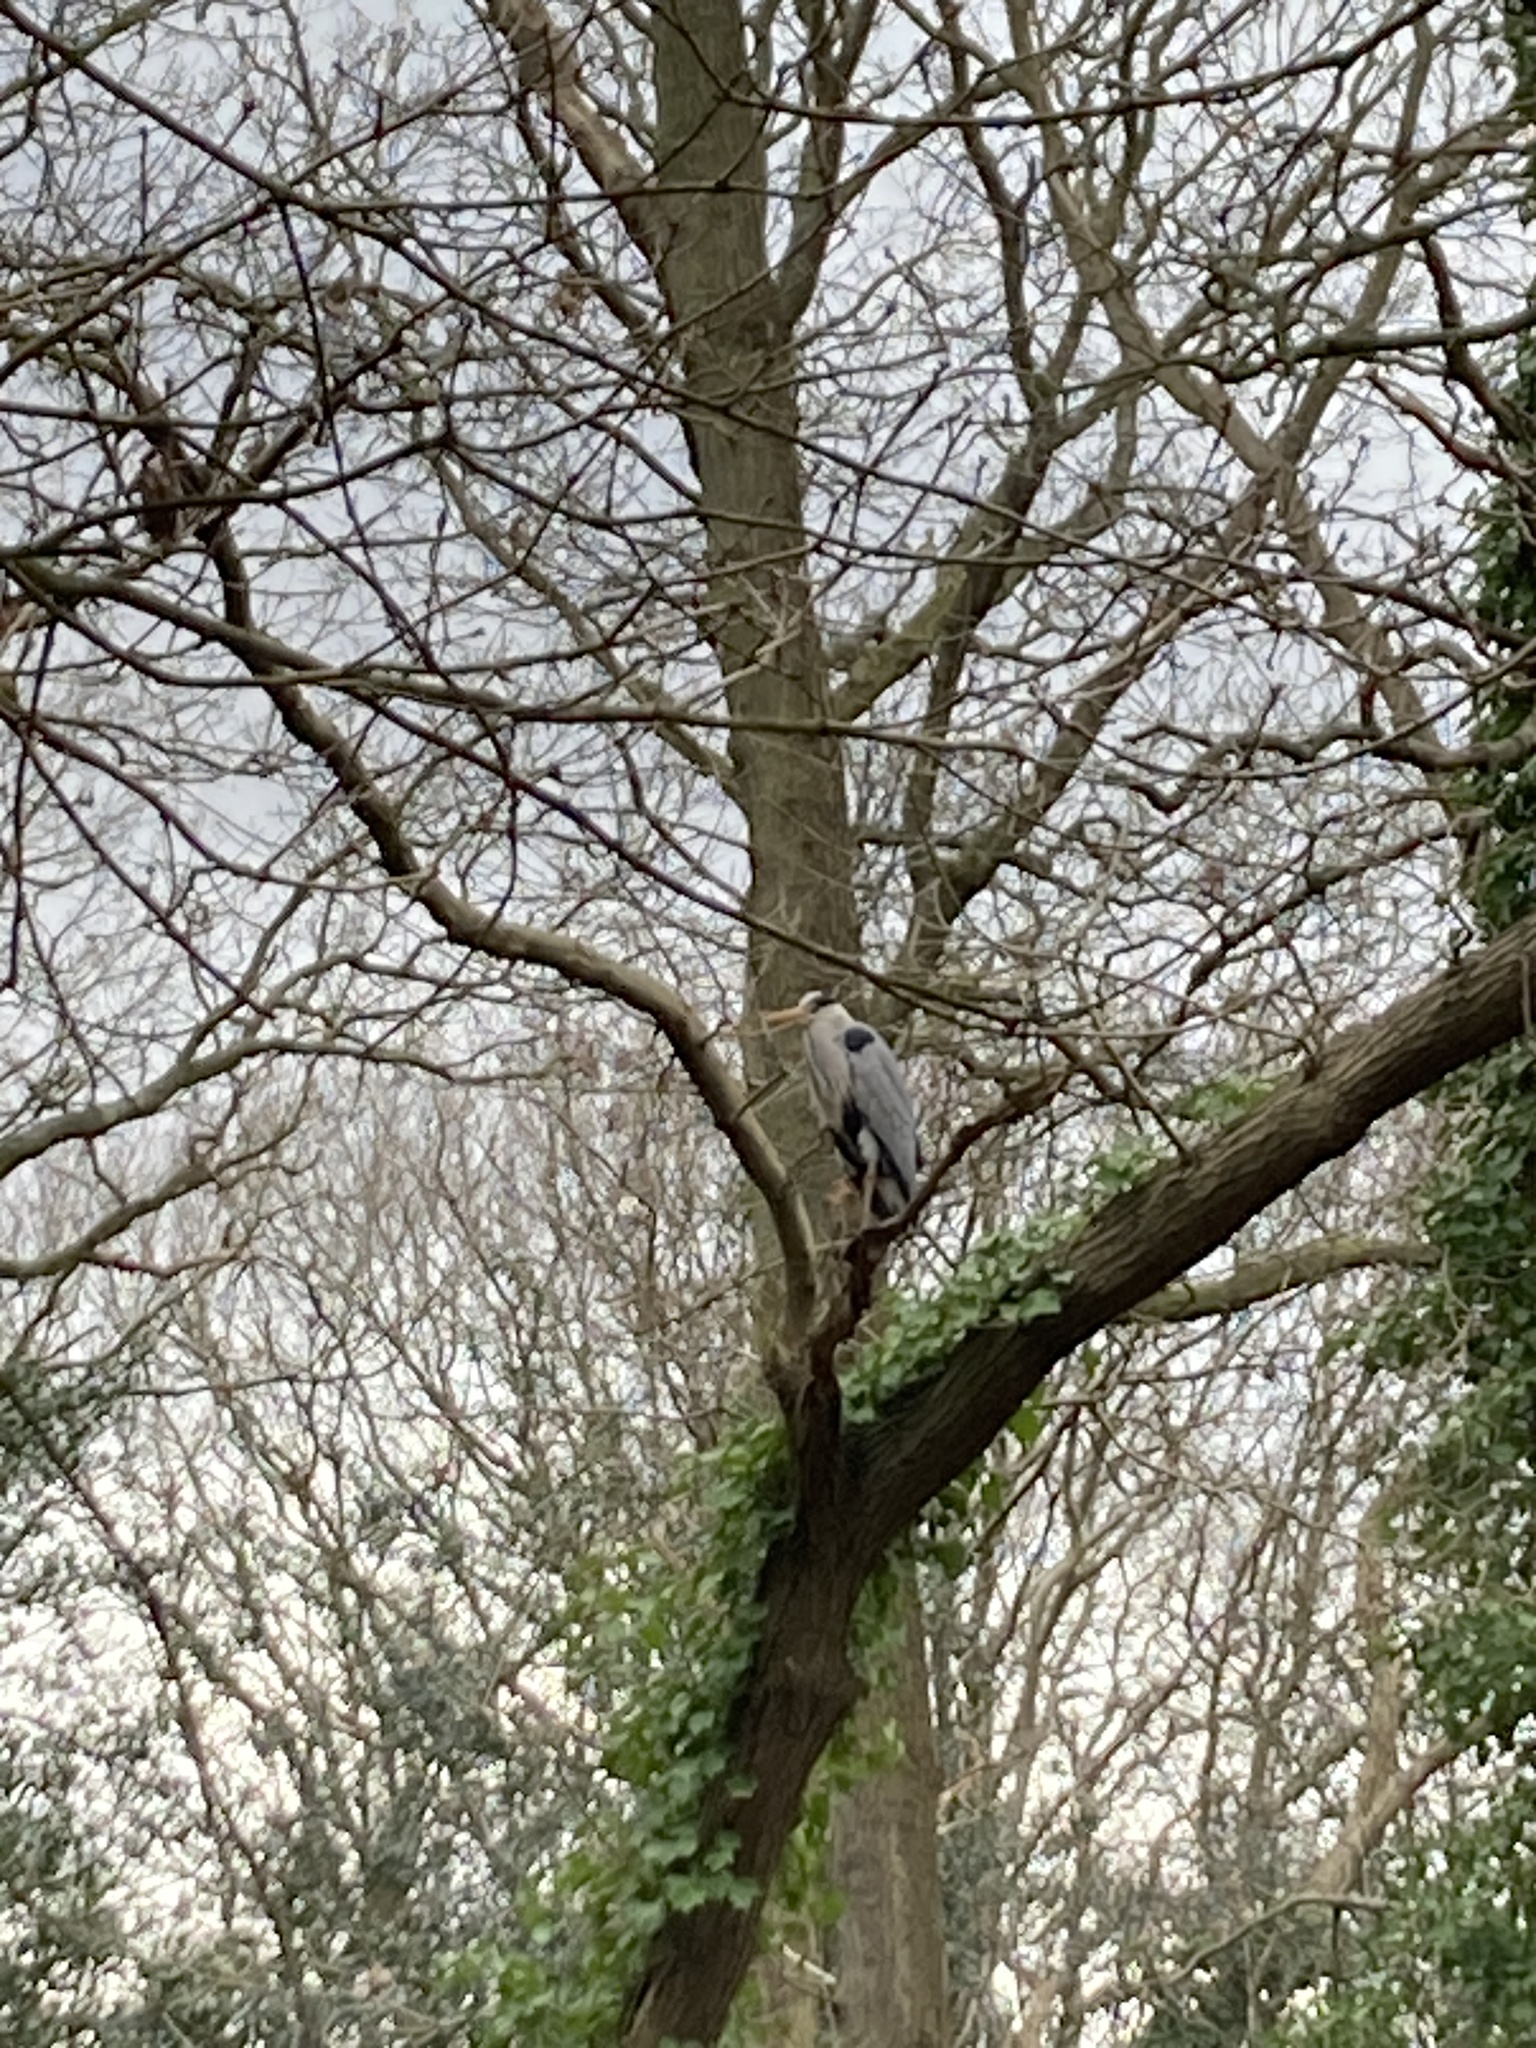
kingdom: Animalia
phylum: Chordata
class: Aves
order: Pelecaniformes
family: Ardeidae
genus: Ardea
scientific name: Ardea cinerea
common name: Grey heron
